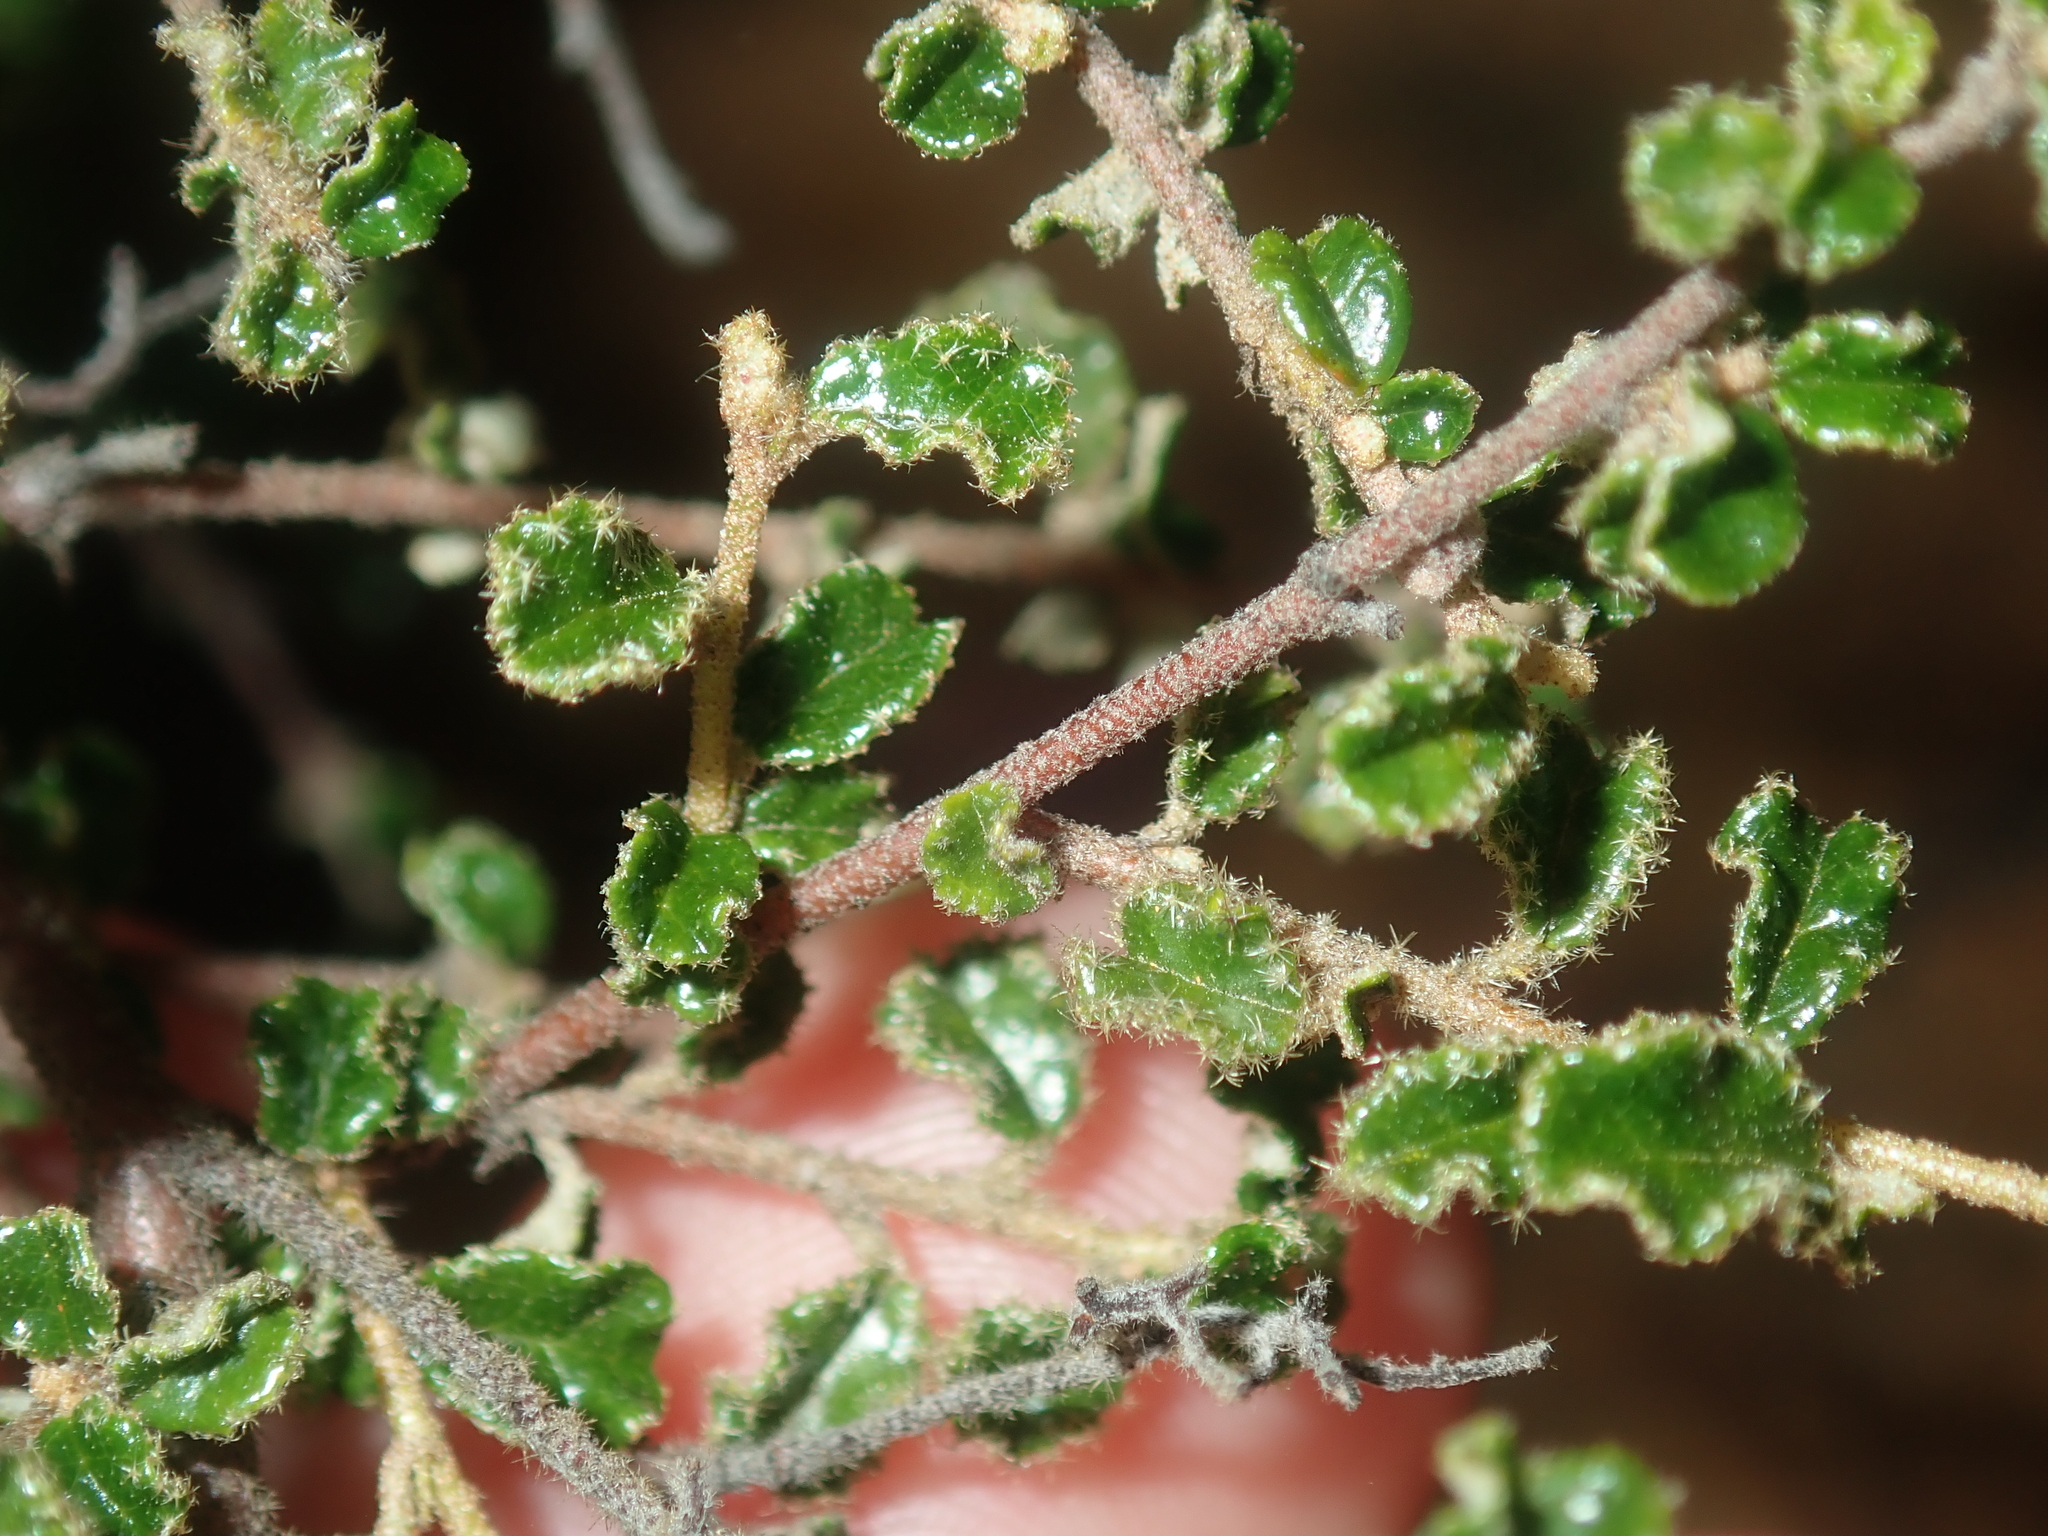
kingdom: Plantae
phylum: Tracheophyta
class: Magnoliopsida
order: Malvales
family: Malvaceae
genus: Seringia
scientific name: Seringia hermannifolia
